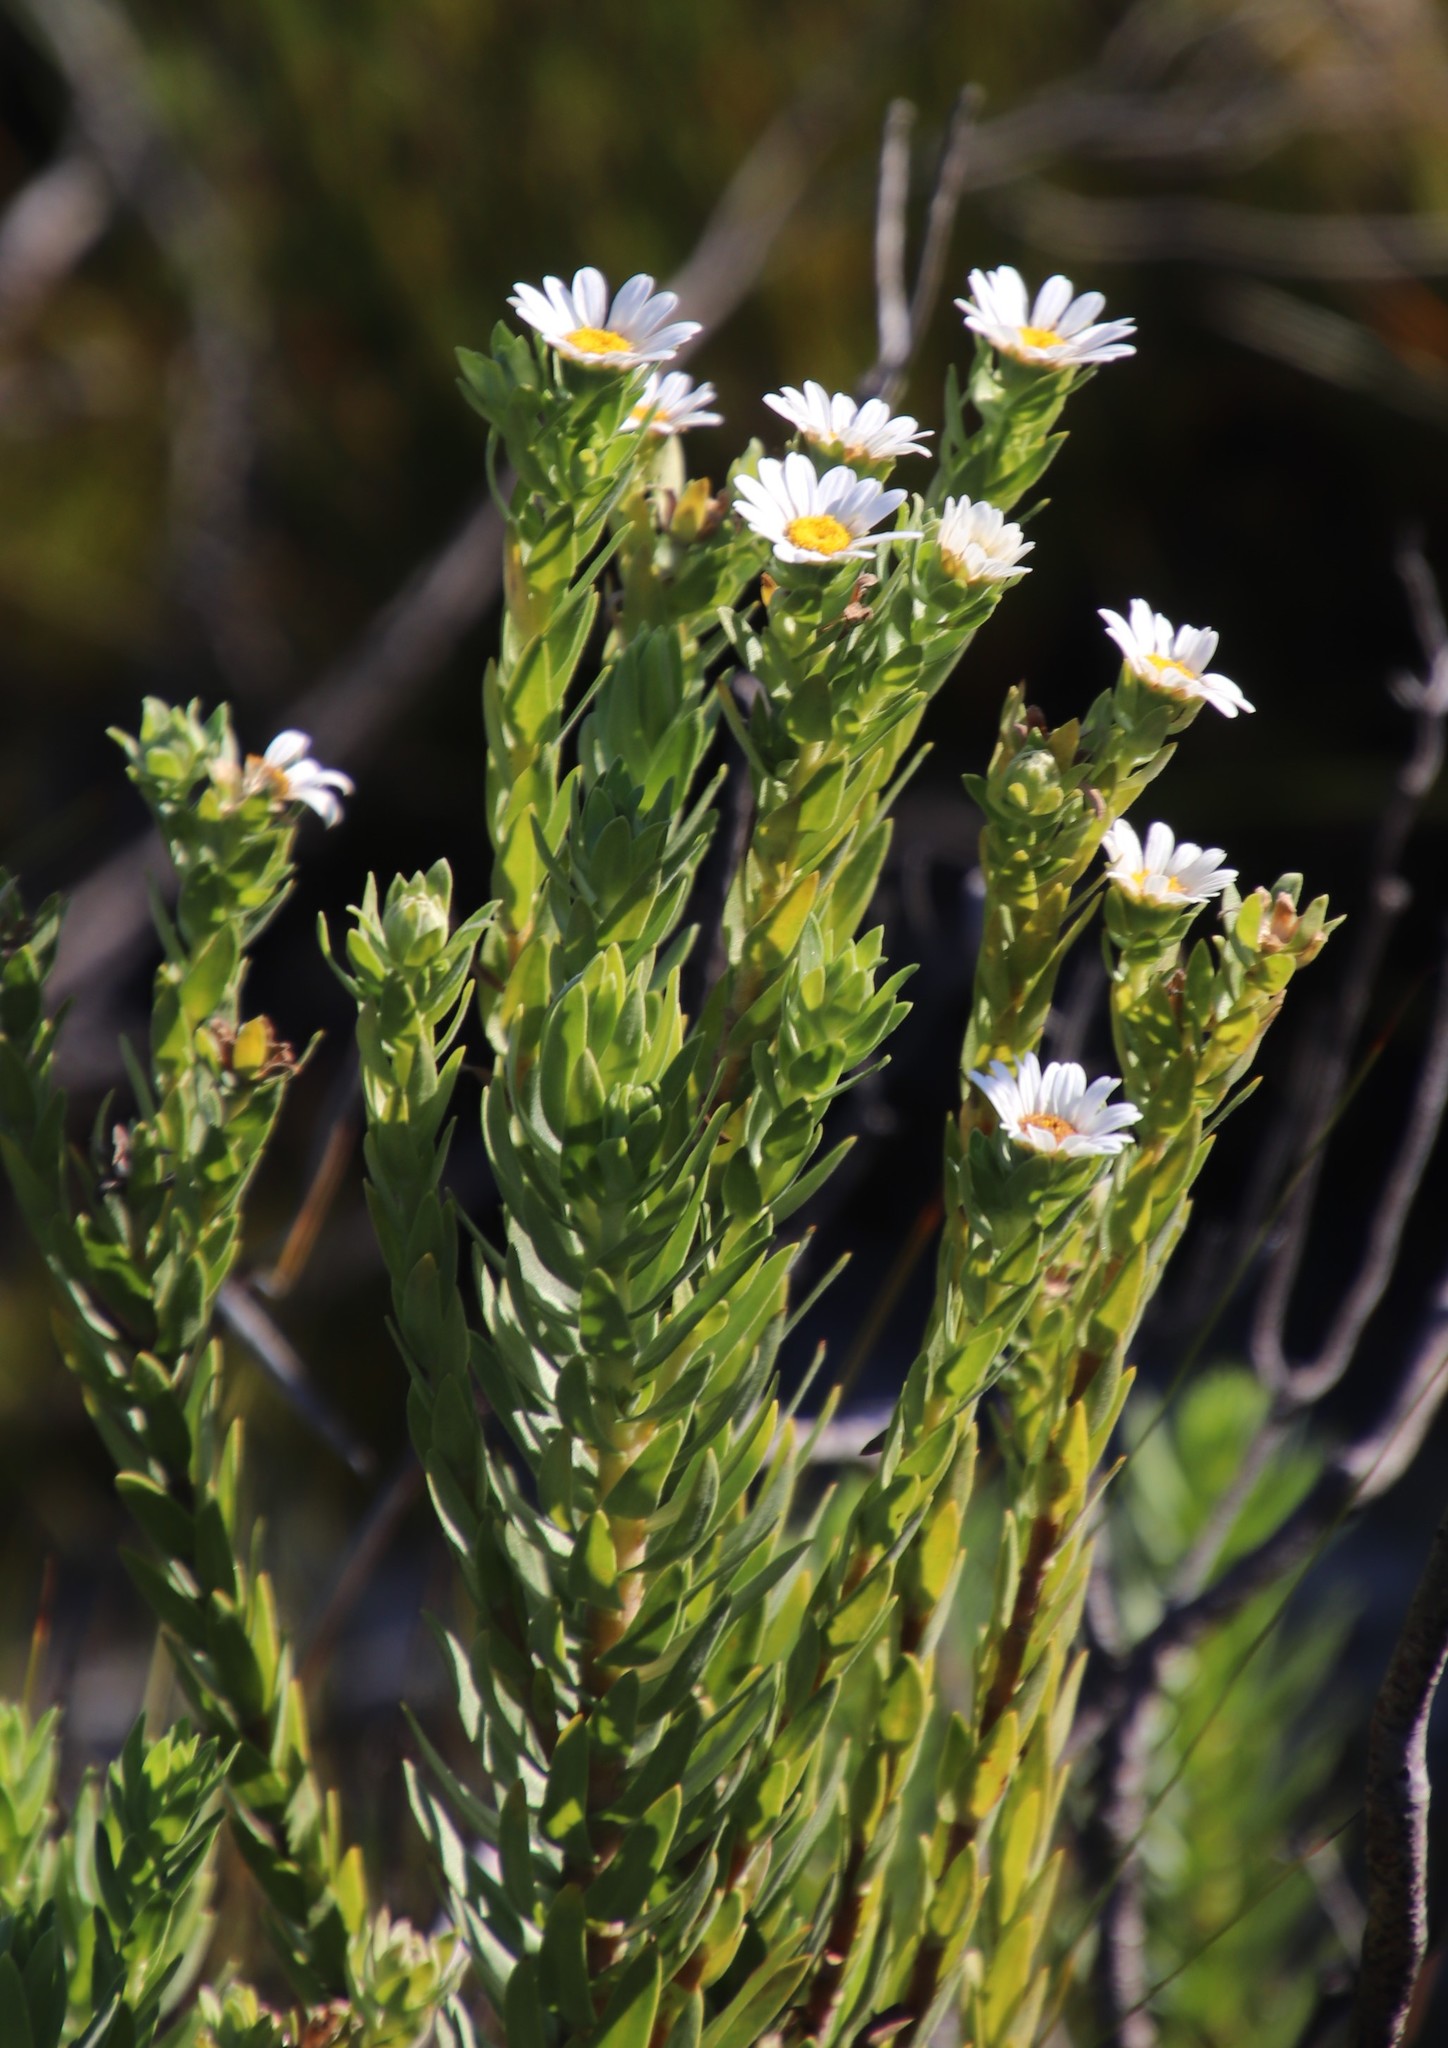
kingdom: Plantae
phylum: Tracheophyta
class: Magnoliopsida
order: Asterales
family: Asteraceae
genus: Osmitopsis
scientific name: Osmitopsis asteriscoides
